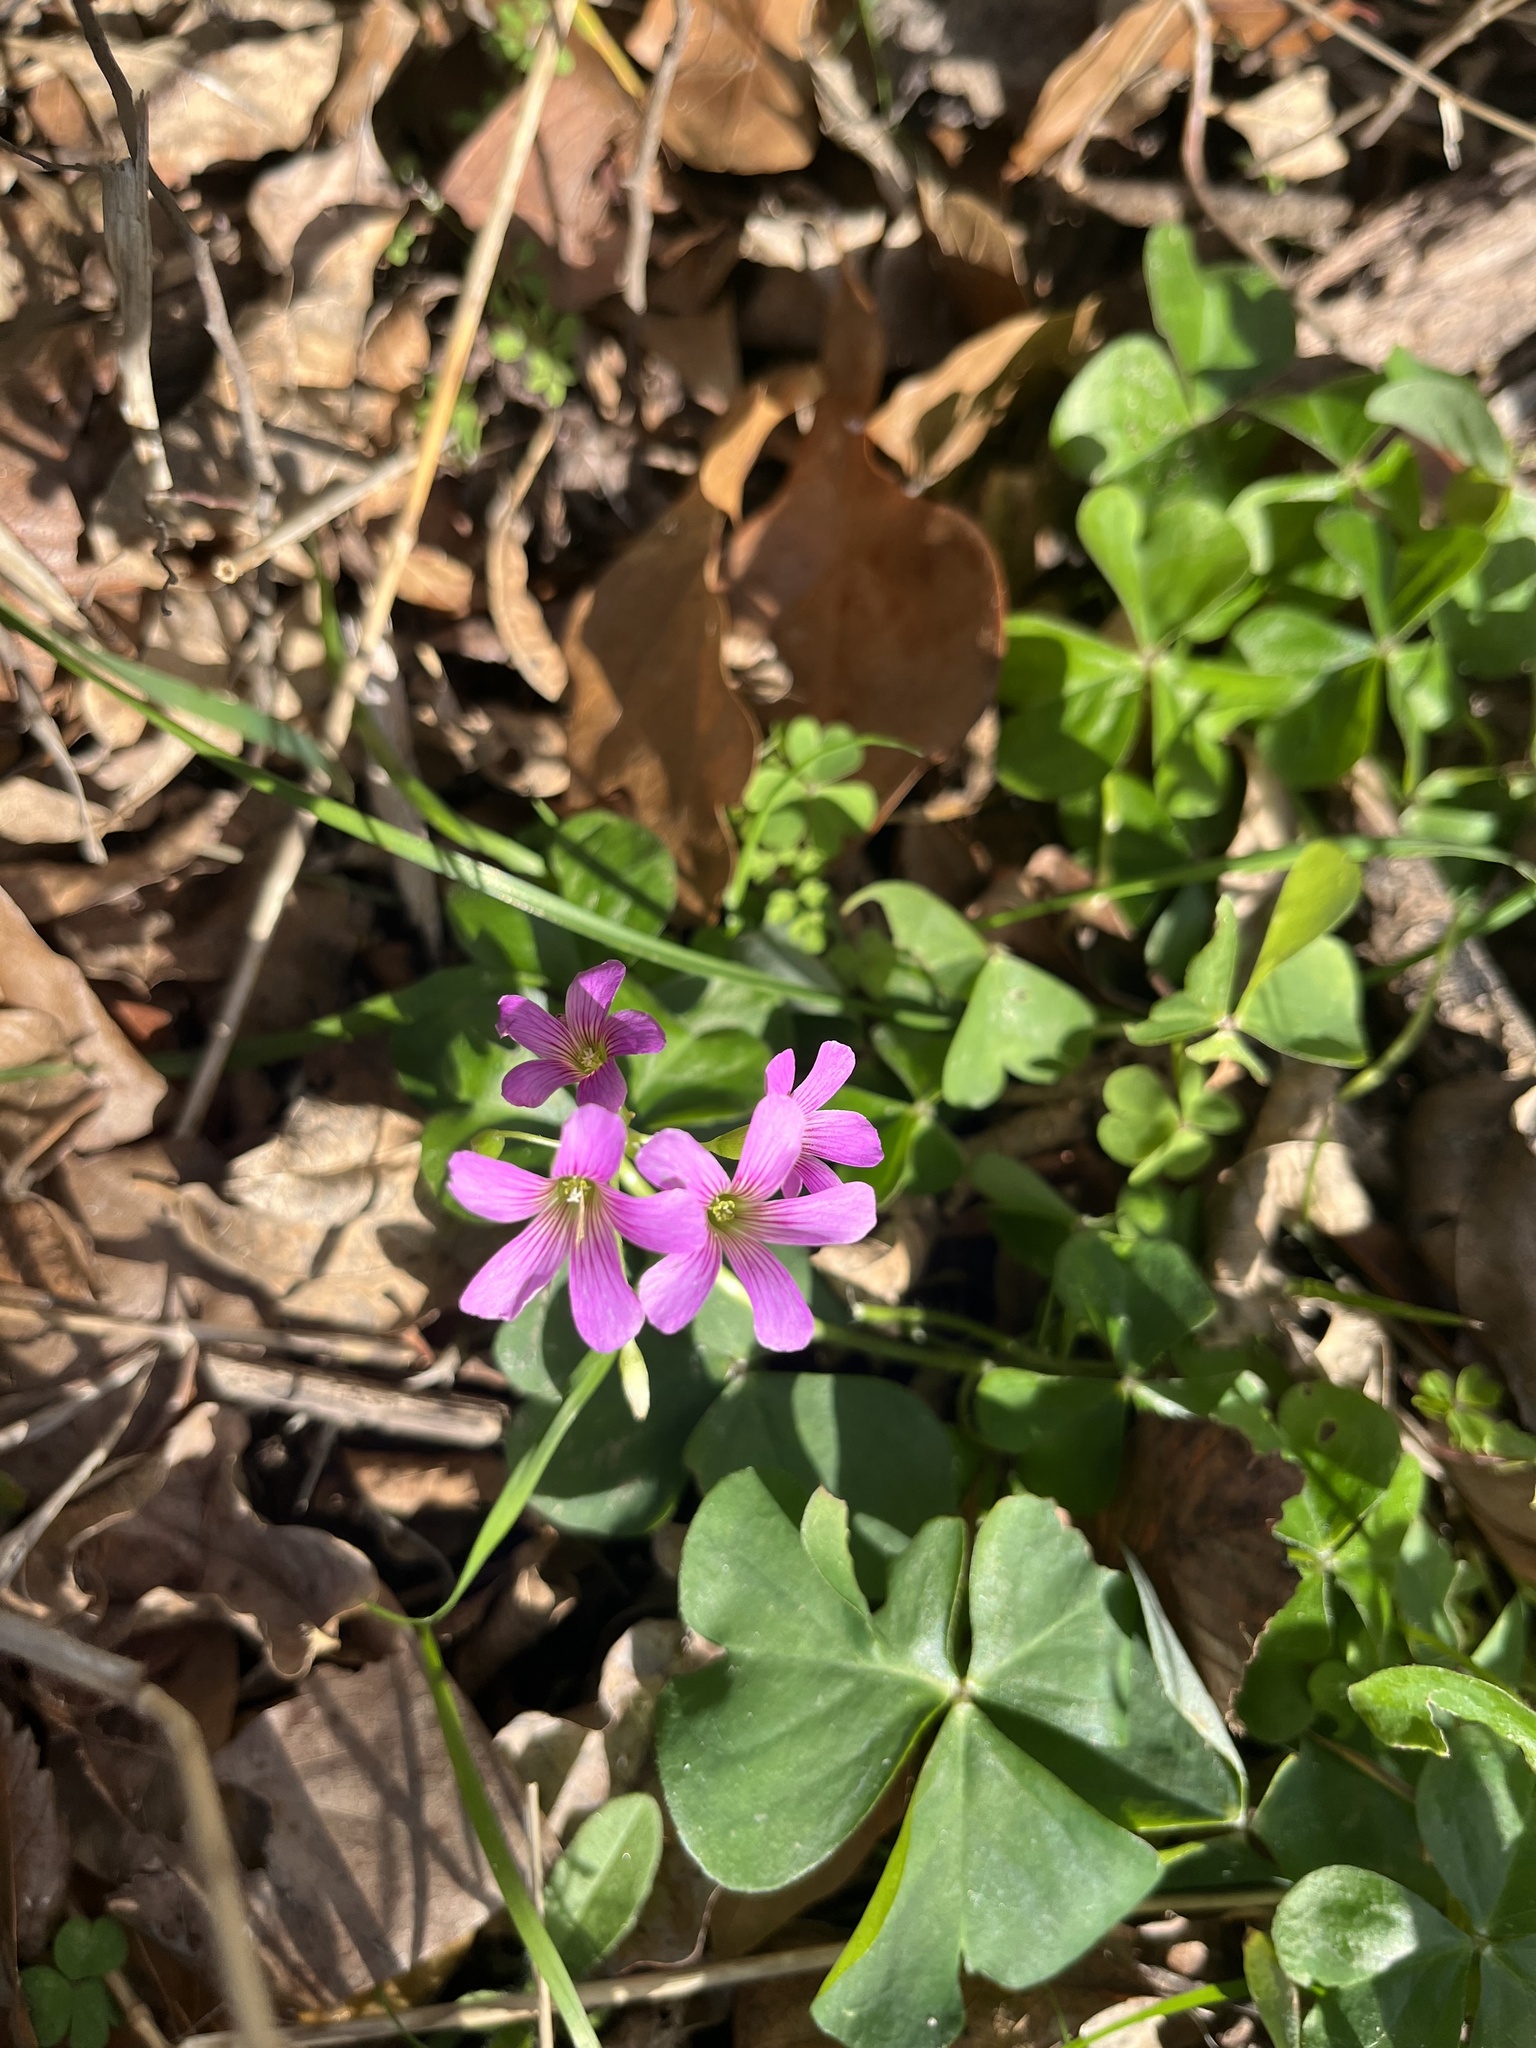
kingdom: Plantae
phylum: Tracheophyta
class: Magnoliopsida
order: Oxalidales
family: Oxalidaceae
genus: Oxalis
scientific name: Oxalis debilis
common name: Large-flowered pink-sorrel
